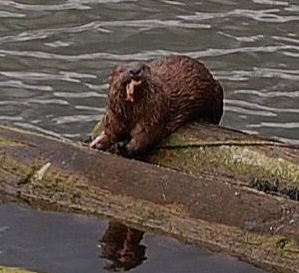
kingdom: Animalia
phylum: Chordata
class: Mammalia
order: Carnivora
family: Mustelidae
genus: Lontra
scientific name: Lontra canadensis
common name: North american river otter
